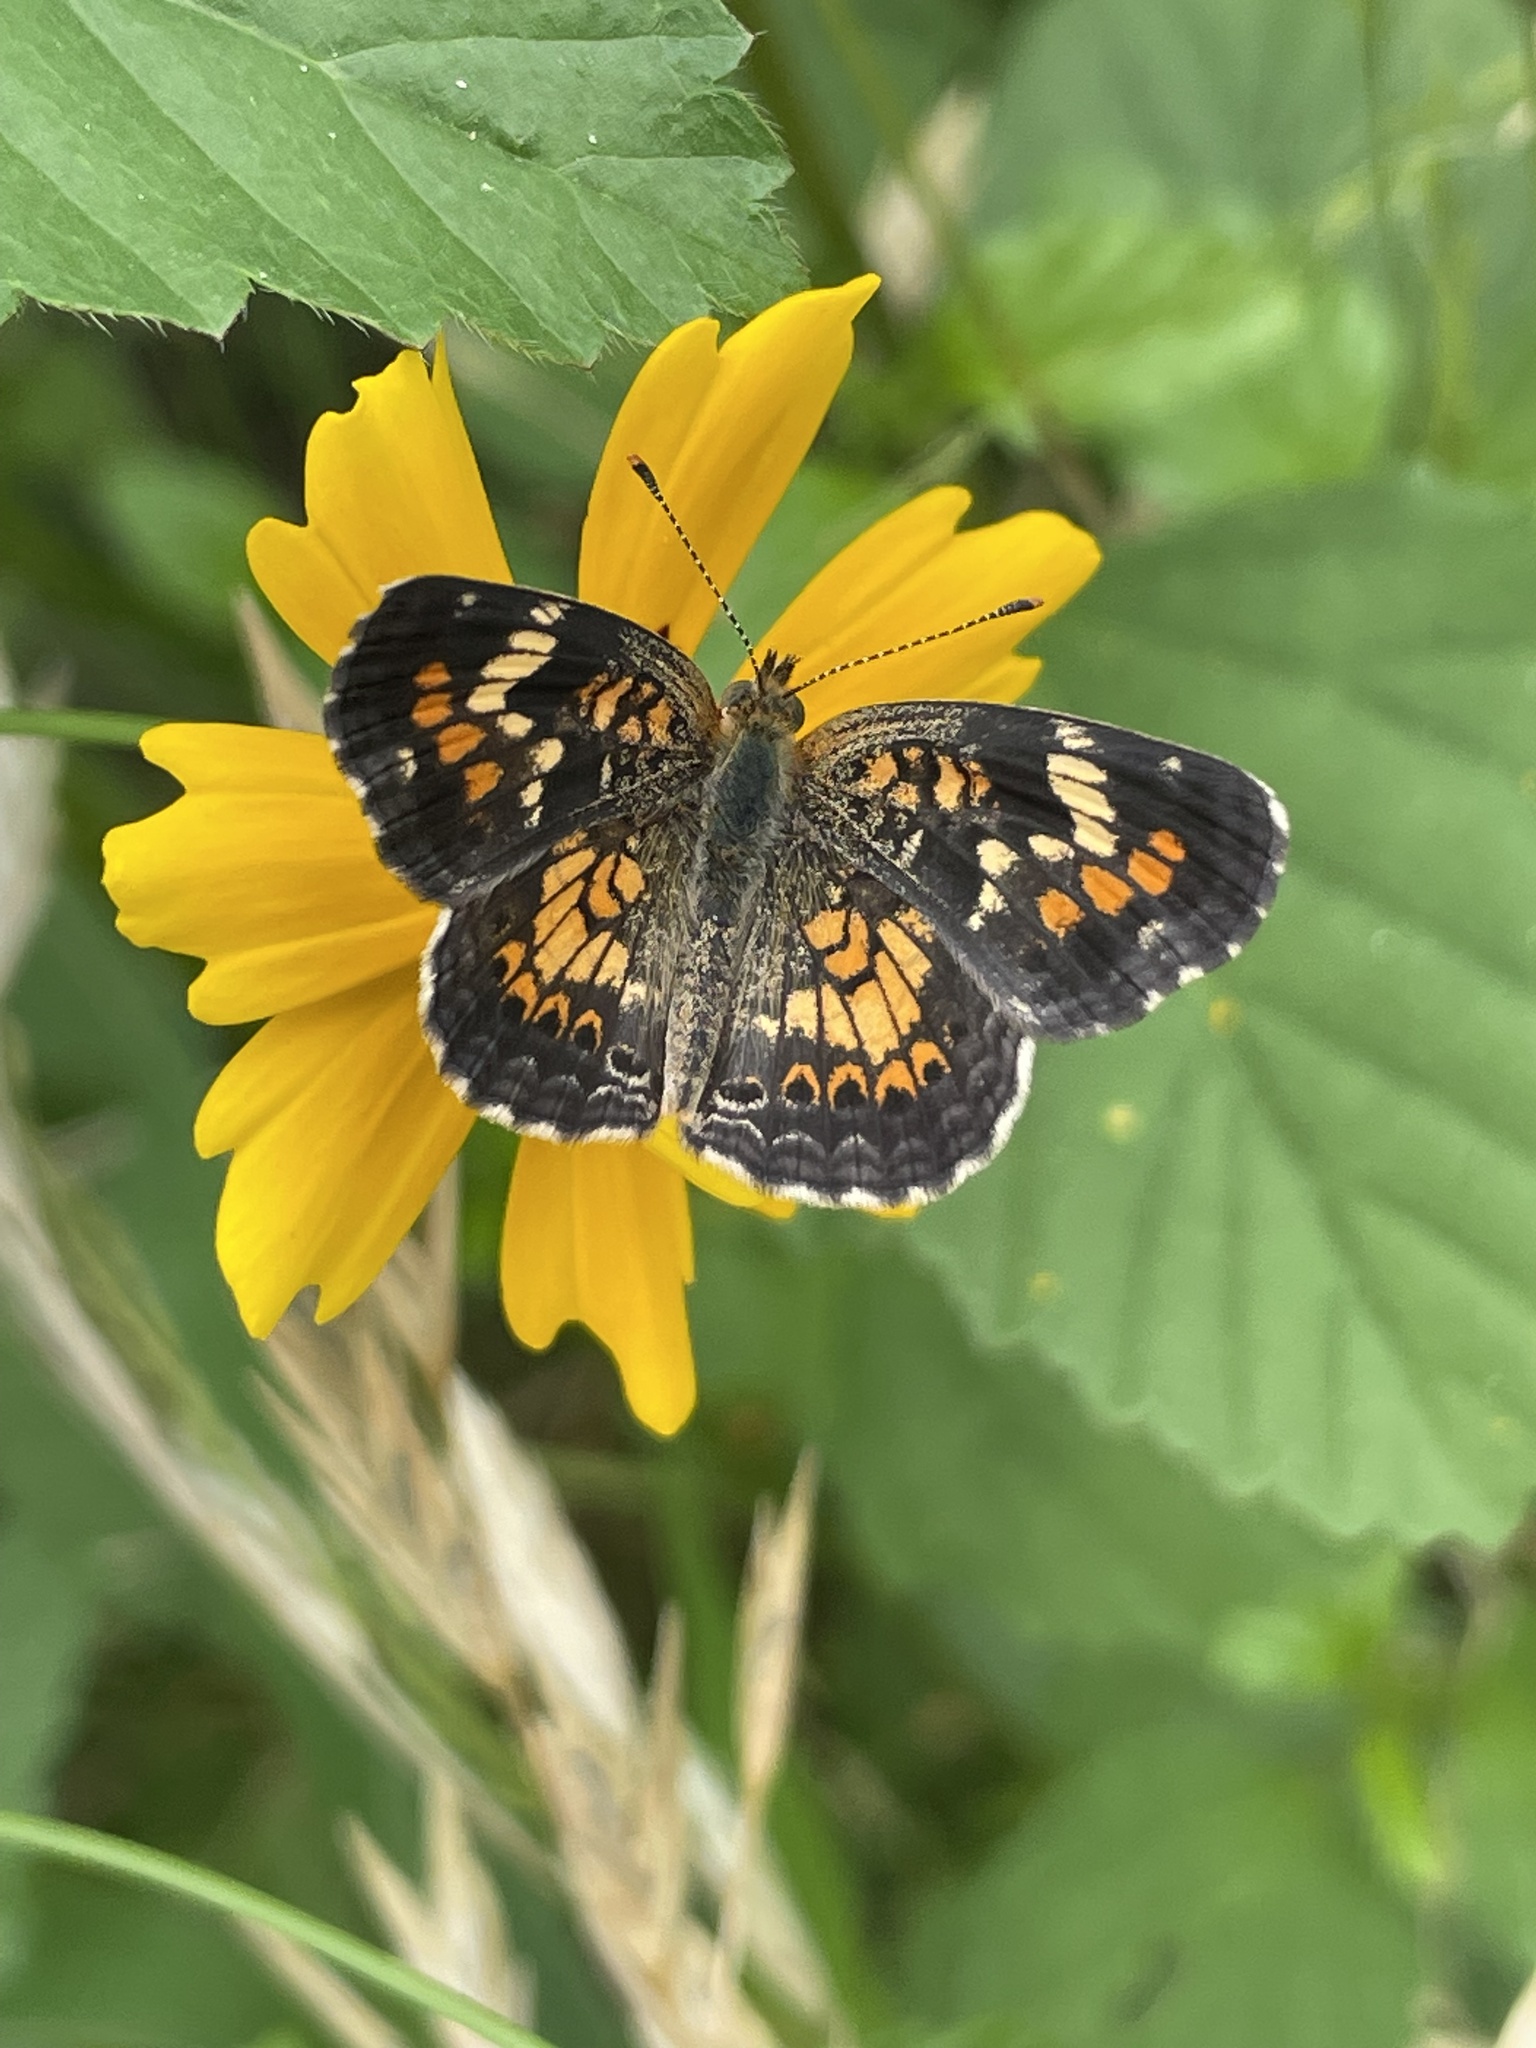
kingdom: Animalia
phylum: Arthropoda
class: Insecta
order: Lepidoptera
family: Nymphalidae
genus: Phyciodes
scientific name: Phyciodes phaon
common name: Phaon crescent
